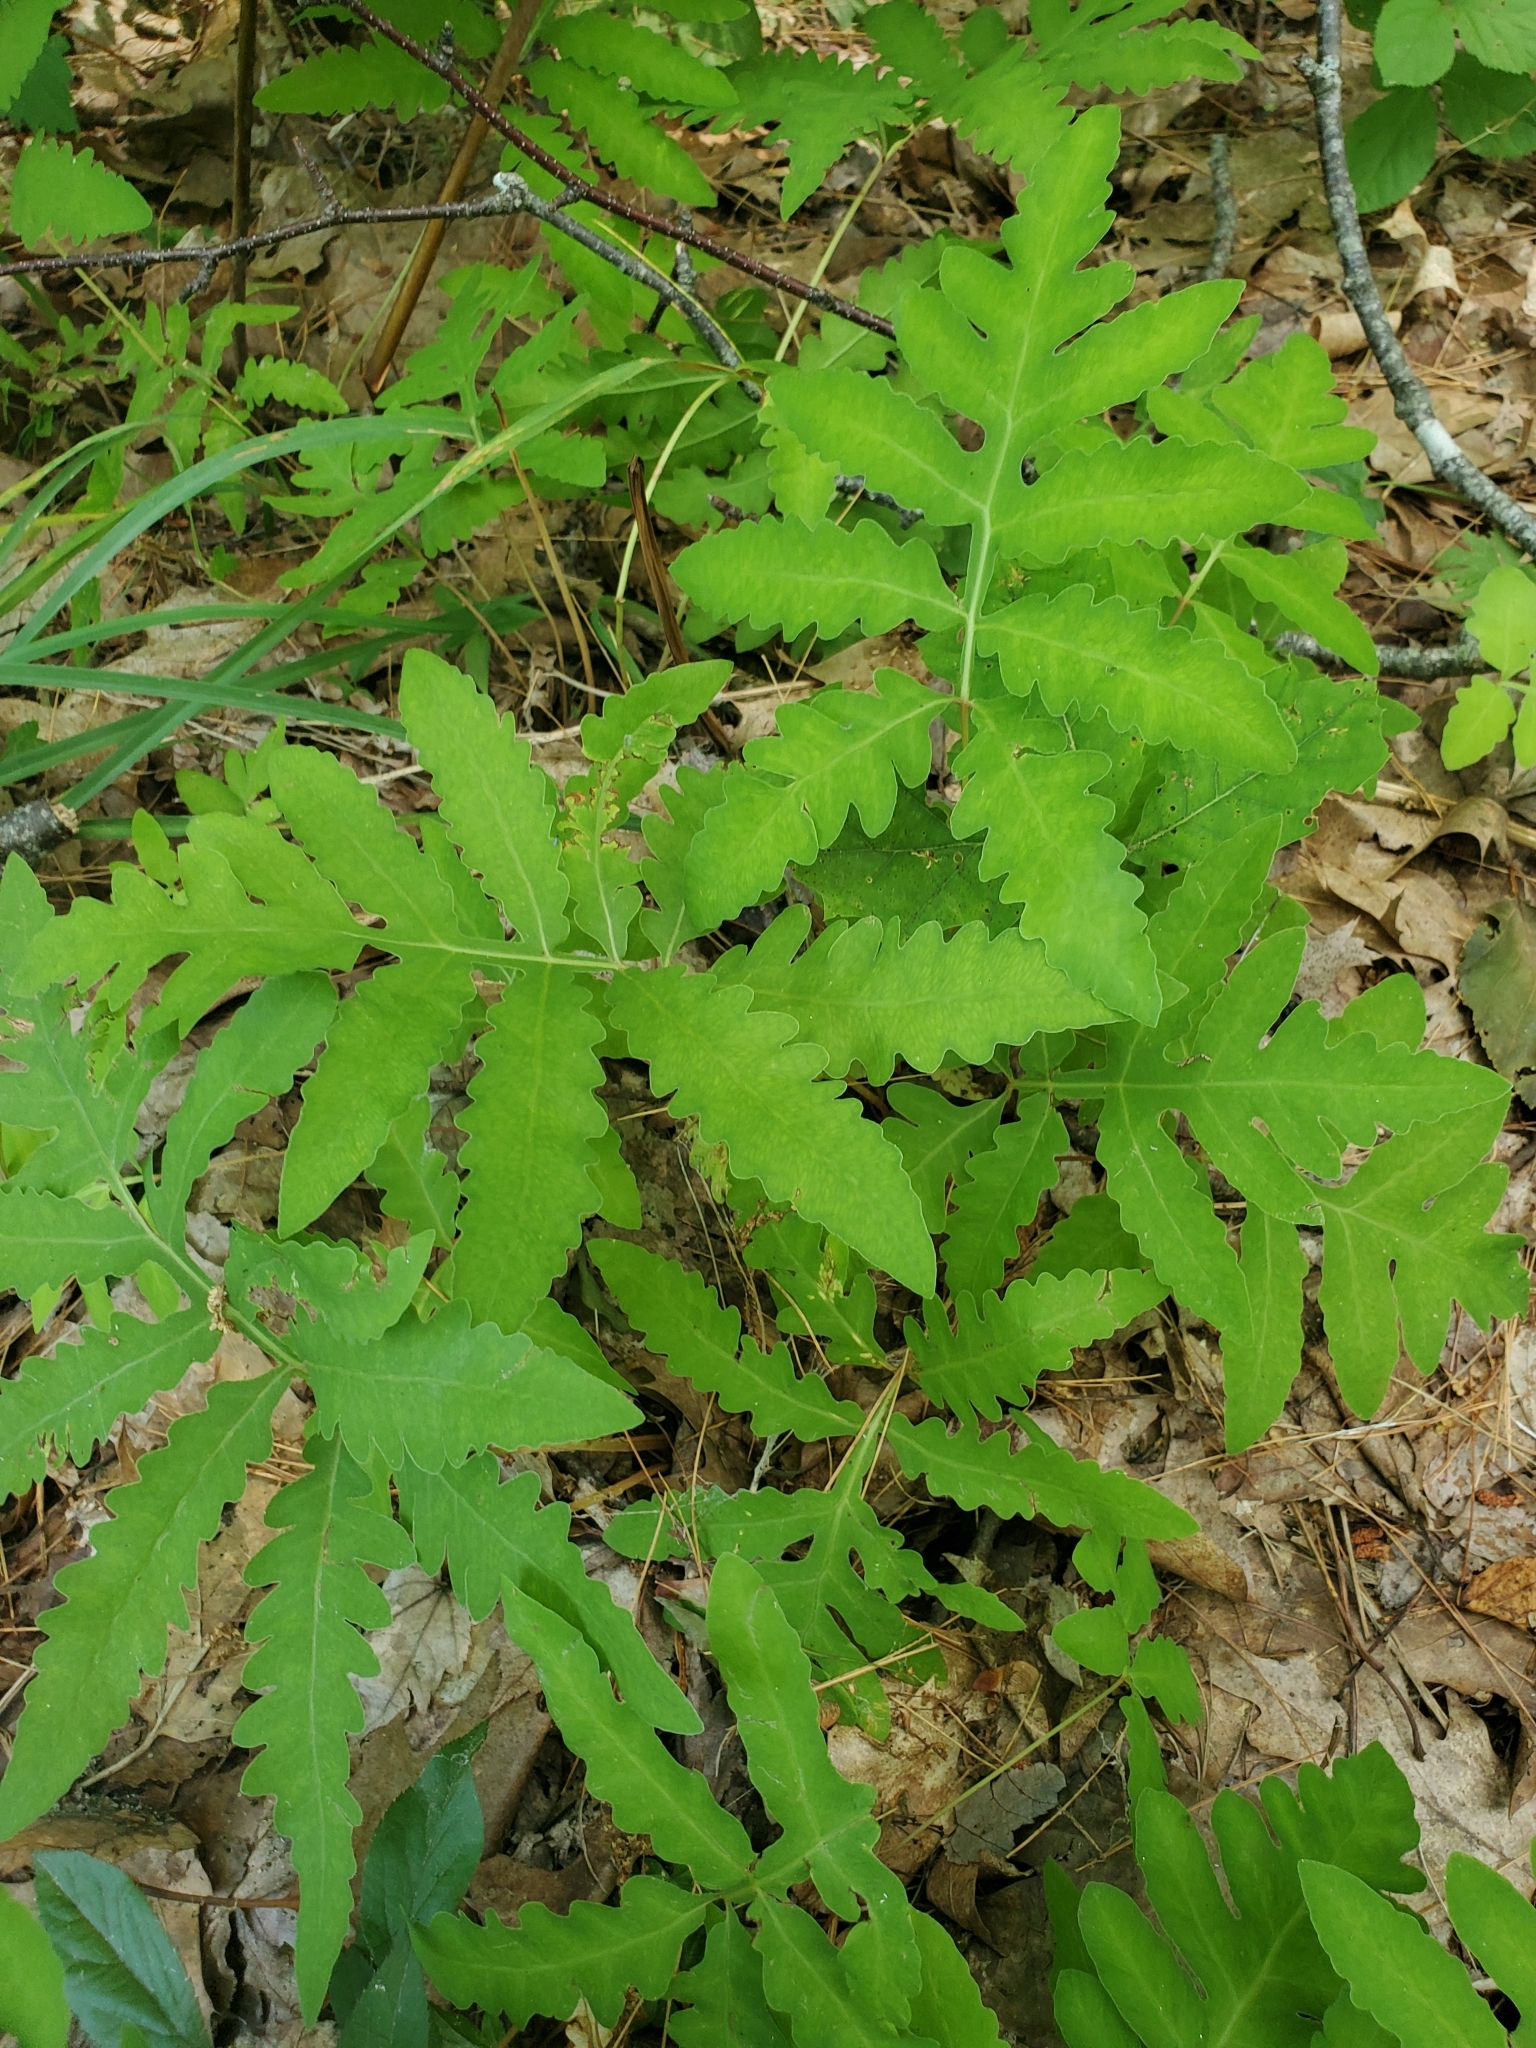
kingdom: Plantae
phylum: Tracheophyta
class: Polypodiopsida
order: Polypodiales
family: Onocleaceae
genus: Onoclea
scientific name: Onoclea sensibilis
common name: Sensitive fern
